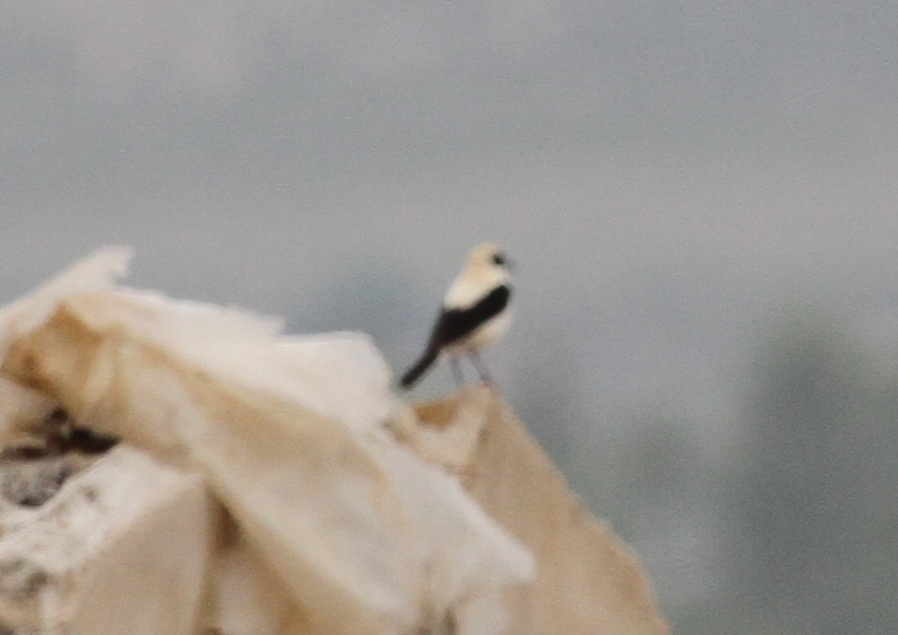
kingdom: Animalia
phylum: Chordata
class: Aves
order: Passeriformes
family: Muscicapidae
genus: Oenanthe
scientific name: Oenanthe hispanica
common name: Black-eared wheatear
